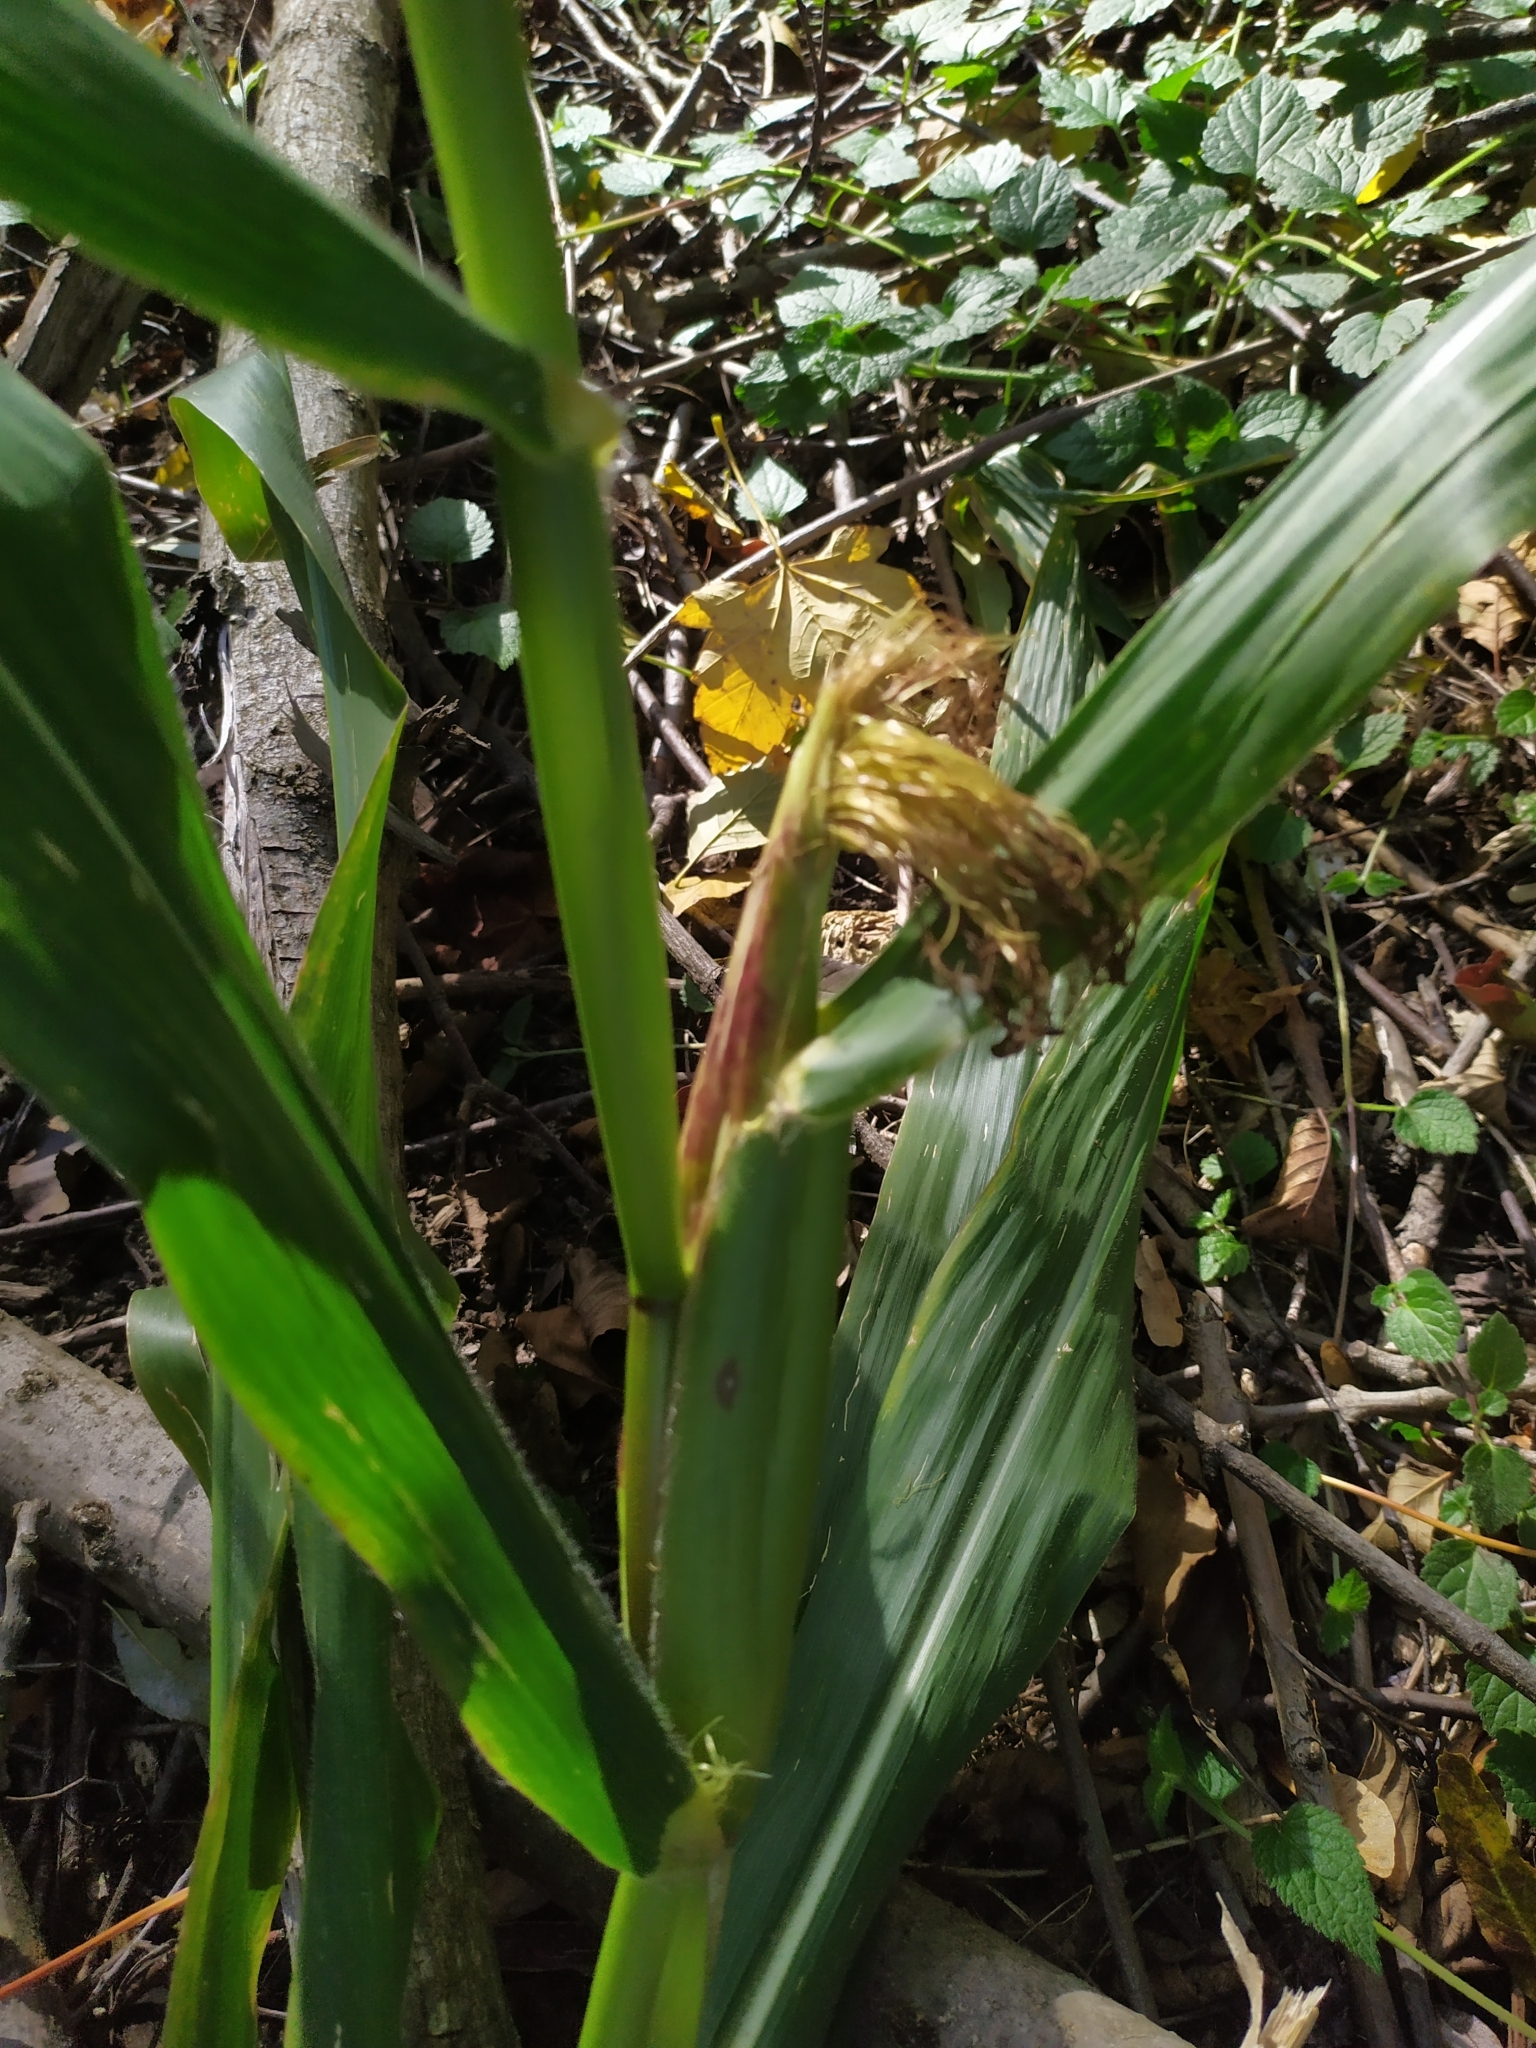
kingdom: Plantae
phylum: Tracheophyta
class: Liliopsida
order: Poales
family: Poaceae
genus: Zea
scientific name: Zea mays
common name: Maize
